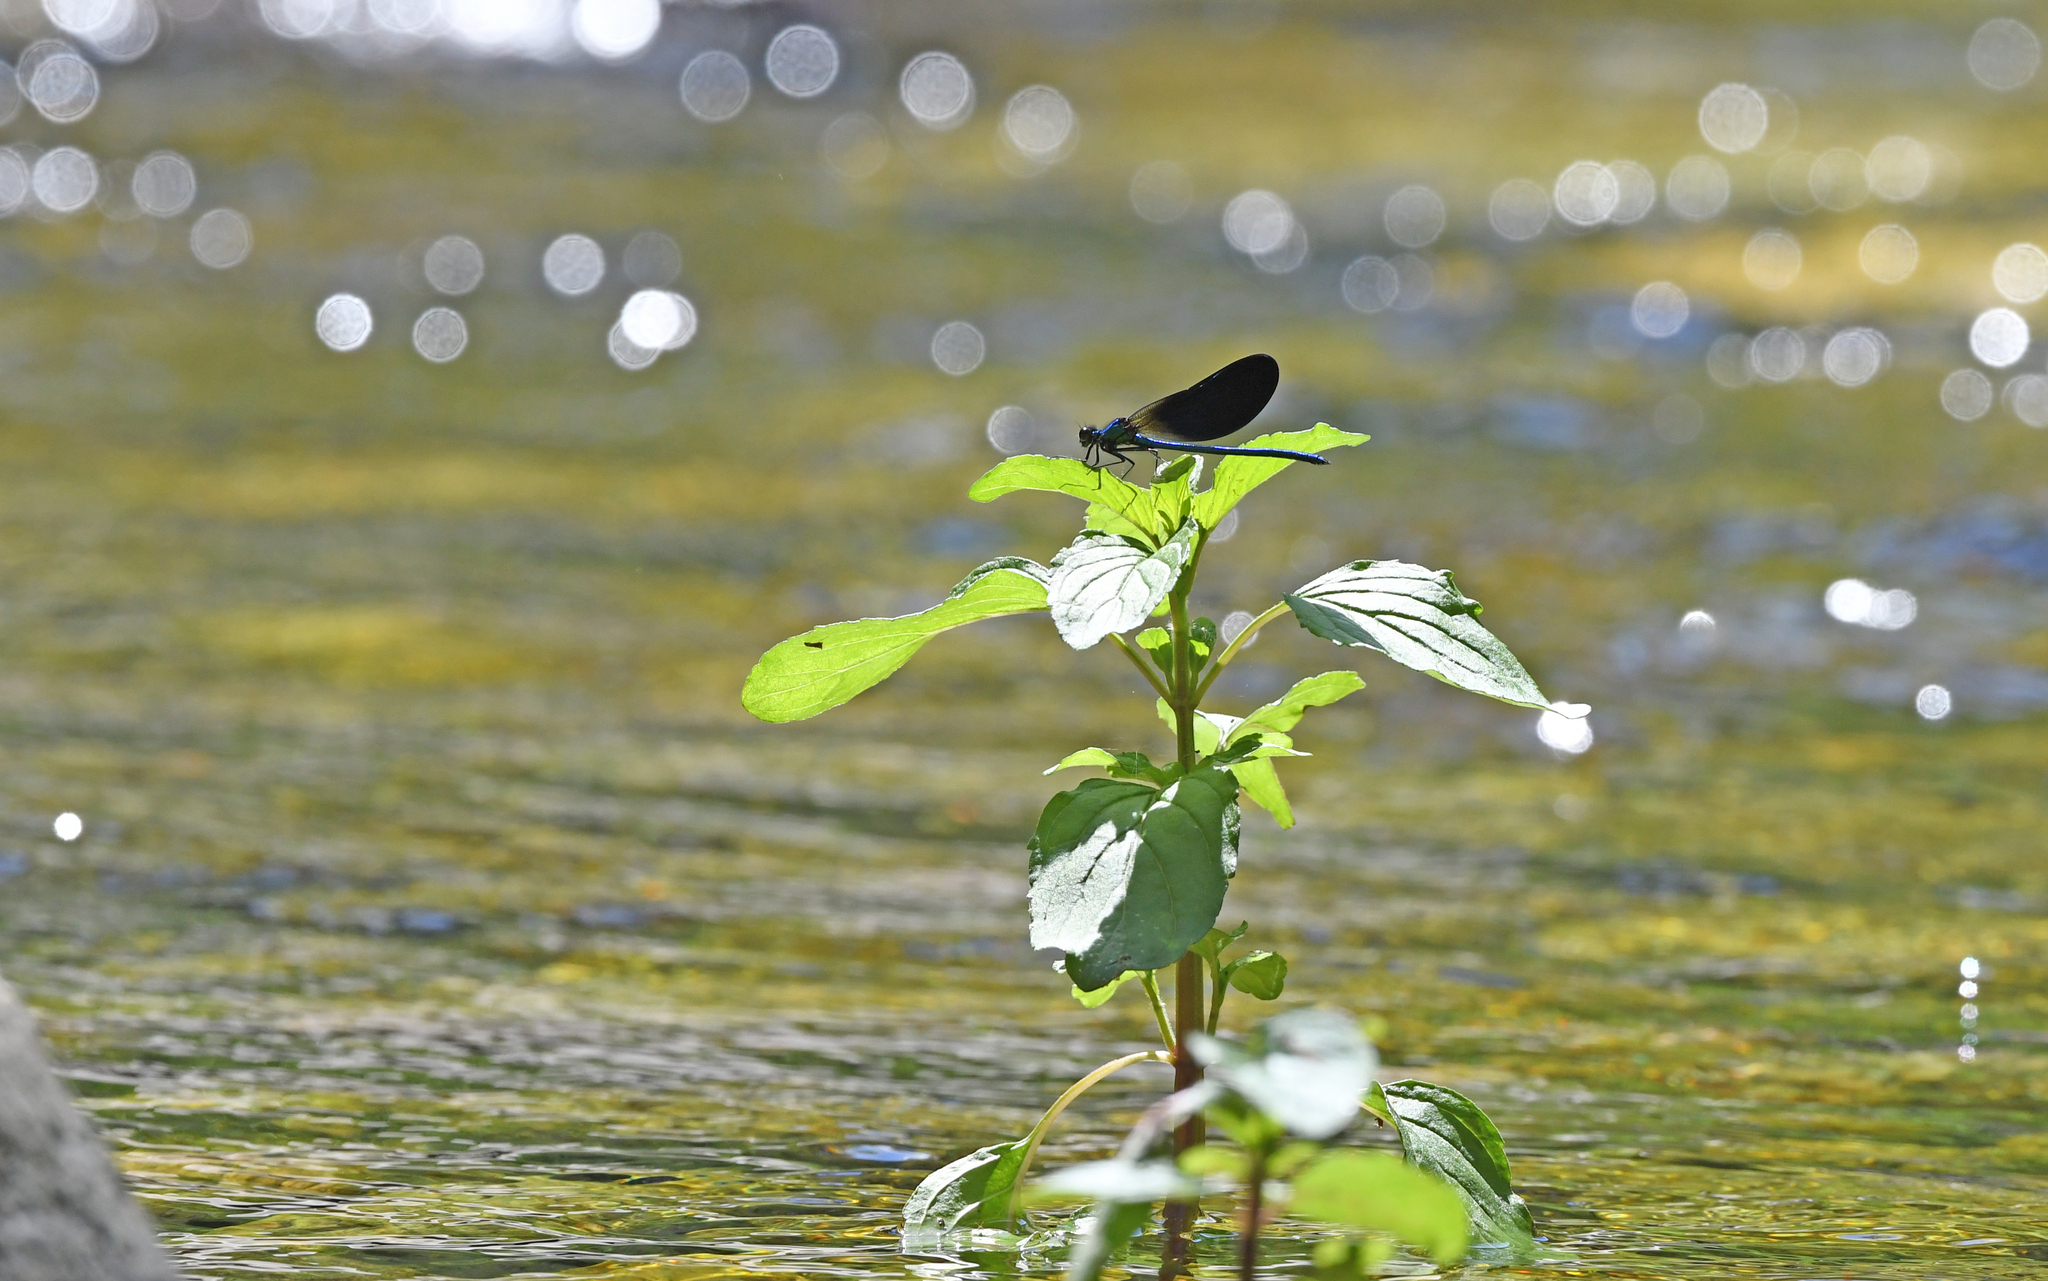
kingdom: Animalia
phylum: Arthropoda
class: Insecta
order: Odonata
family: Calopterygidae
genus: Calopteryx
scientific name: Calopteryx haemorrhoidalis
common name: Copper demoiselle
